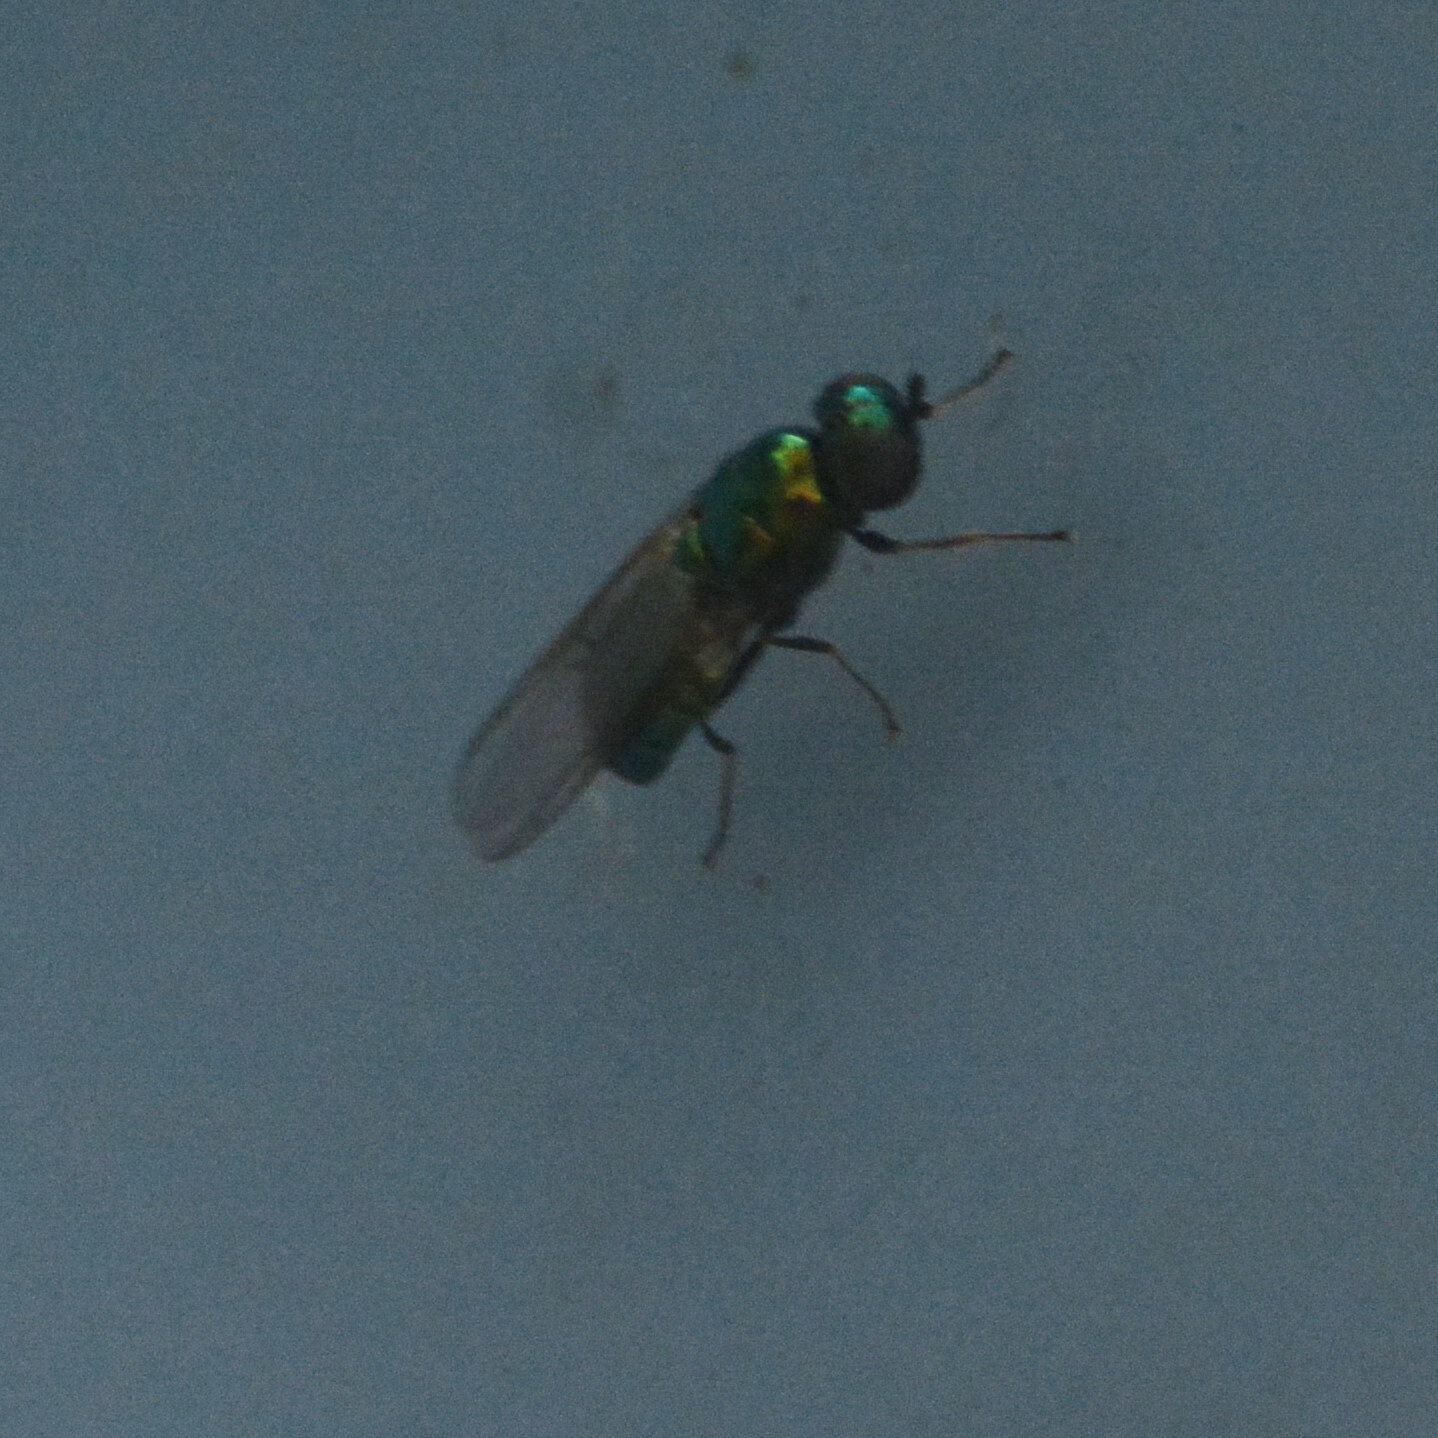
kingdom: Animalia
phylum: Arthropoda
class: Insecta
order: Diptera
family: Stratiomyidae
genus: Microchrysa
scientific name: Microchrysa polita
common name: Black-horned gem
